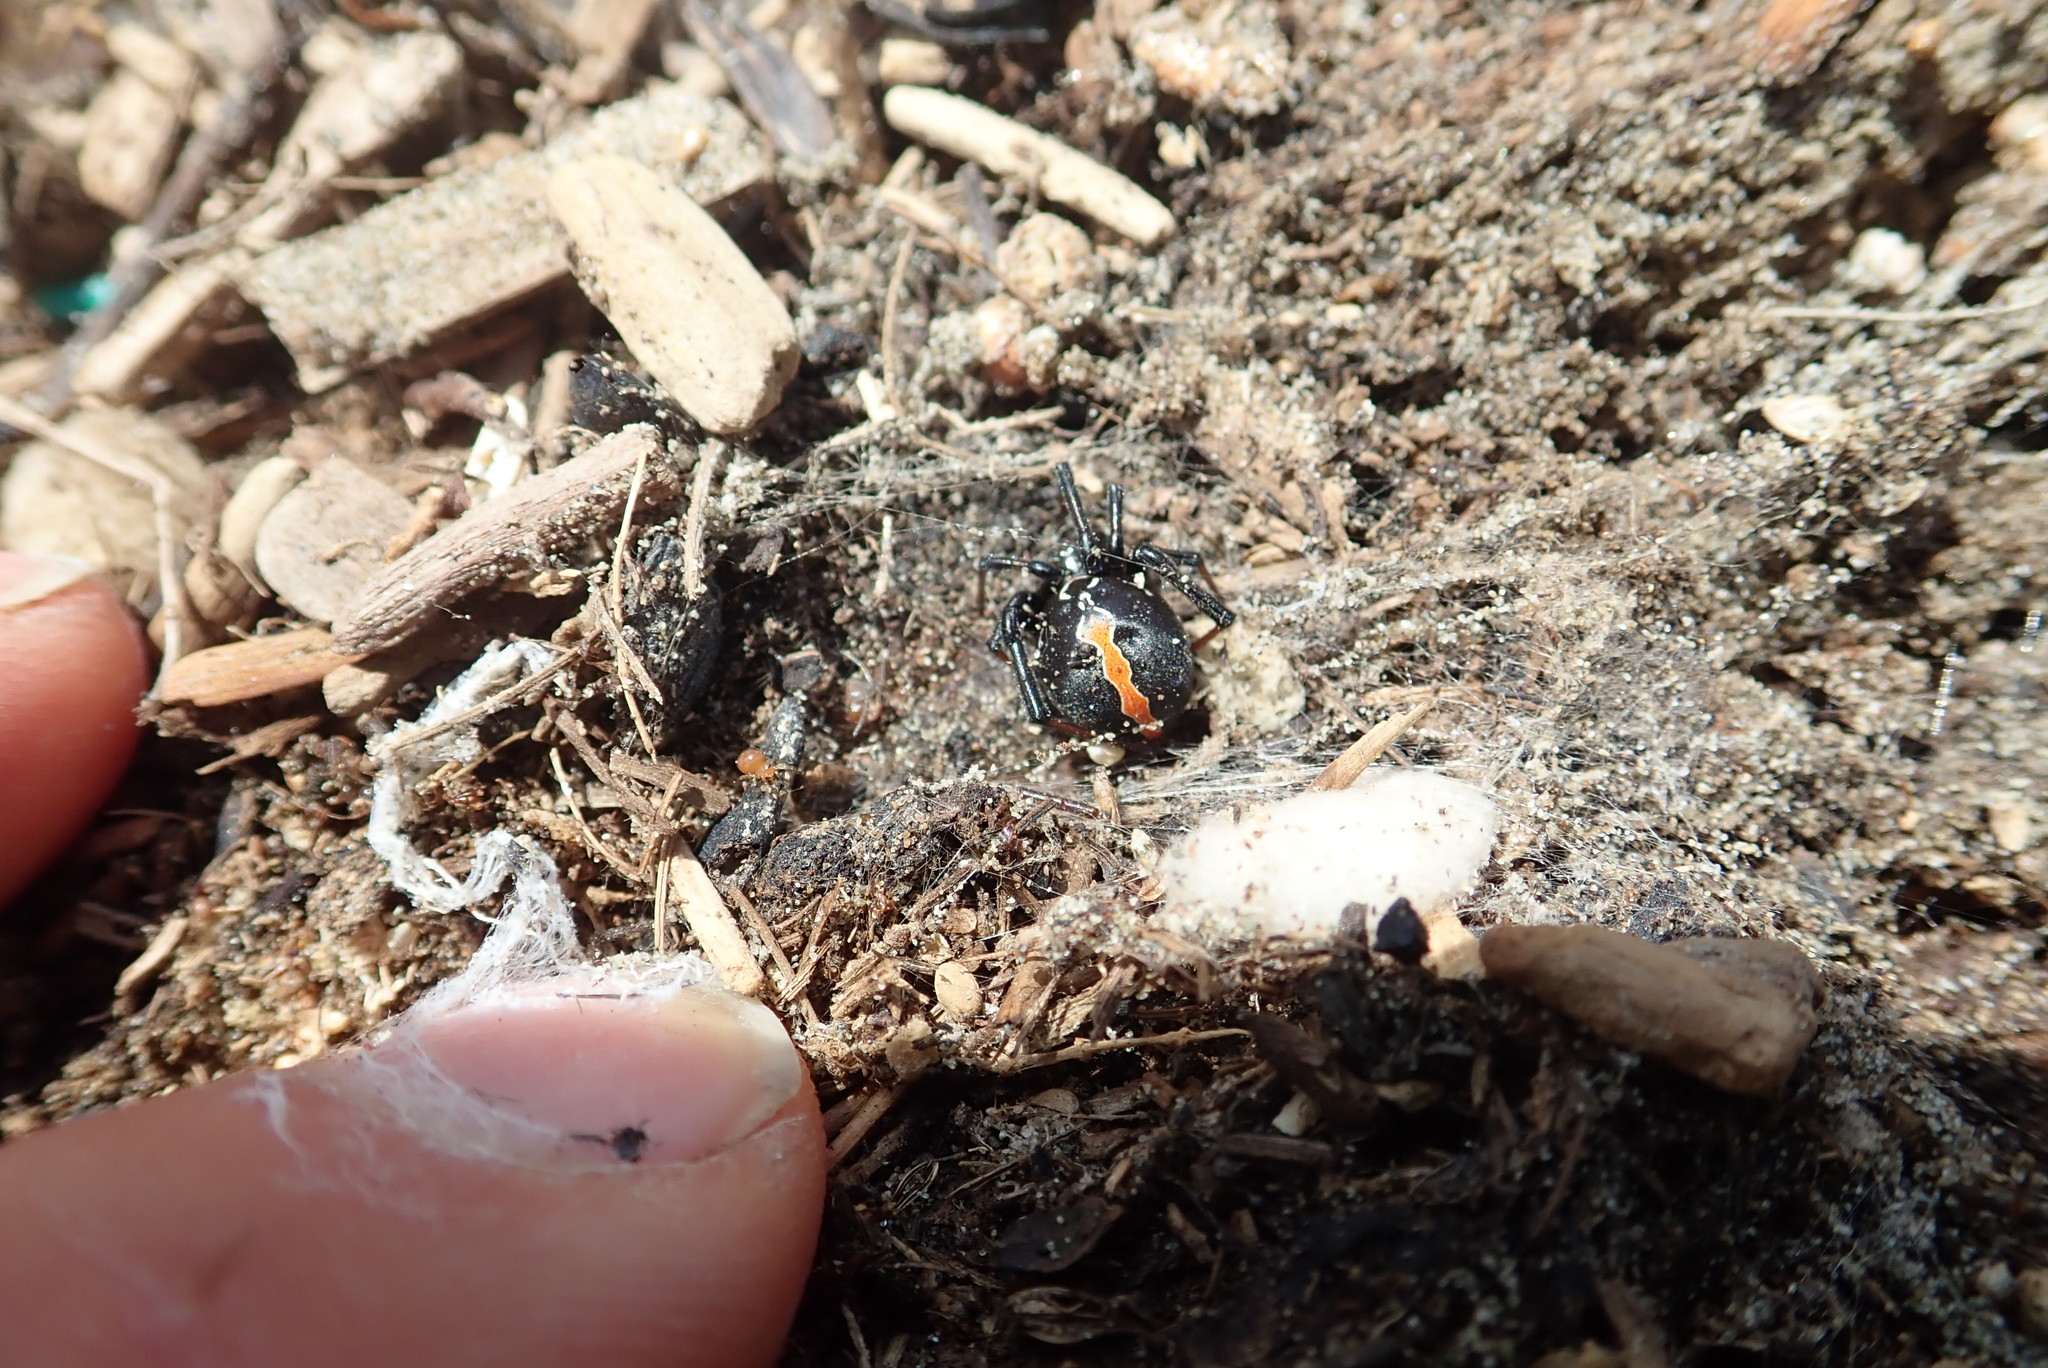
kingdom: Animalia
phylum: Arthropoda
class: Arachnida
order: Araneae
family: Theridiidae
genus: Latrodectus
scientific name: Latrodectus katipo
